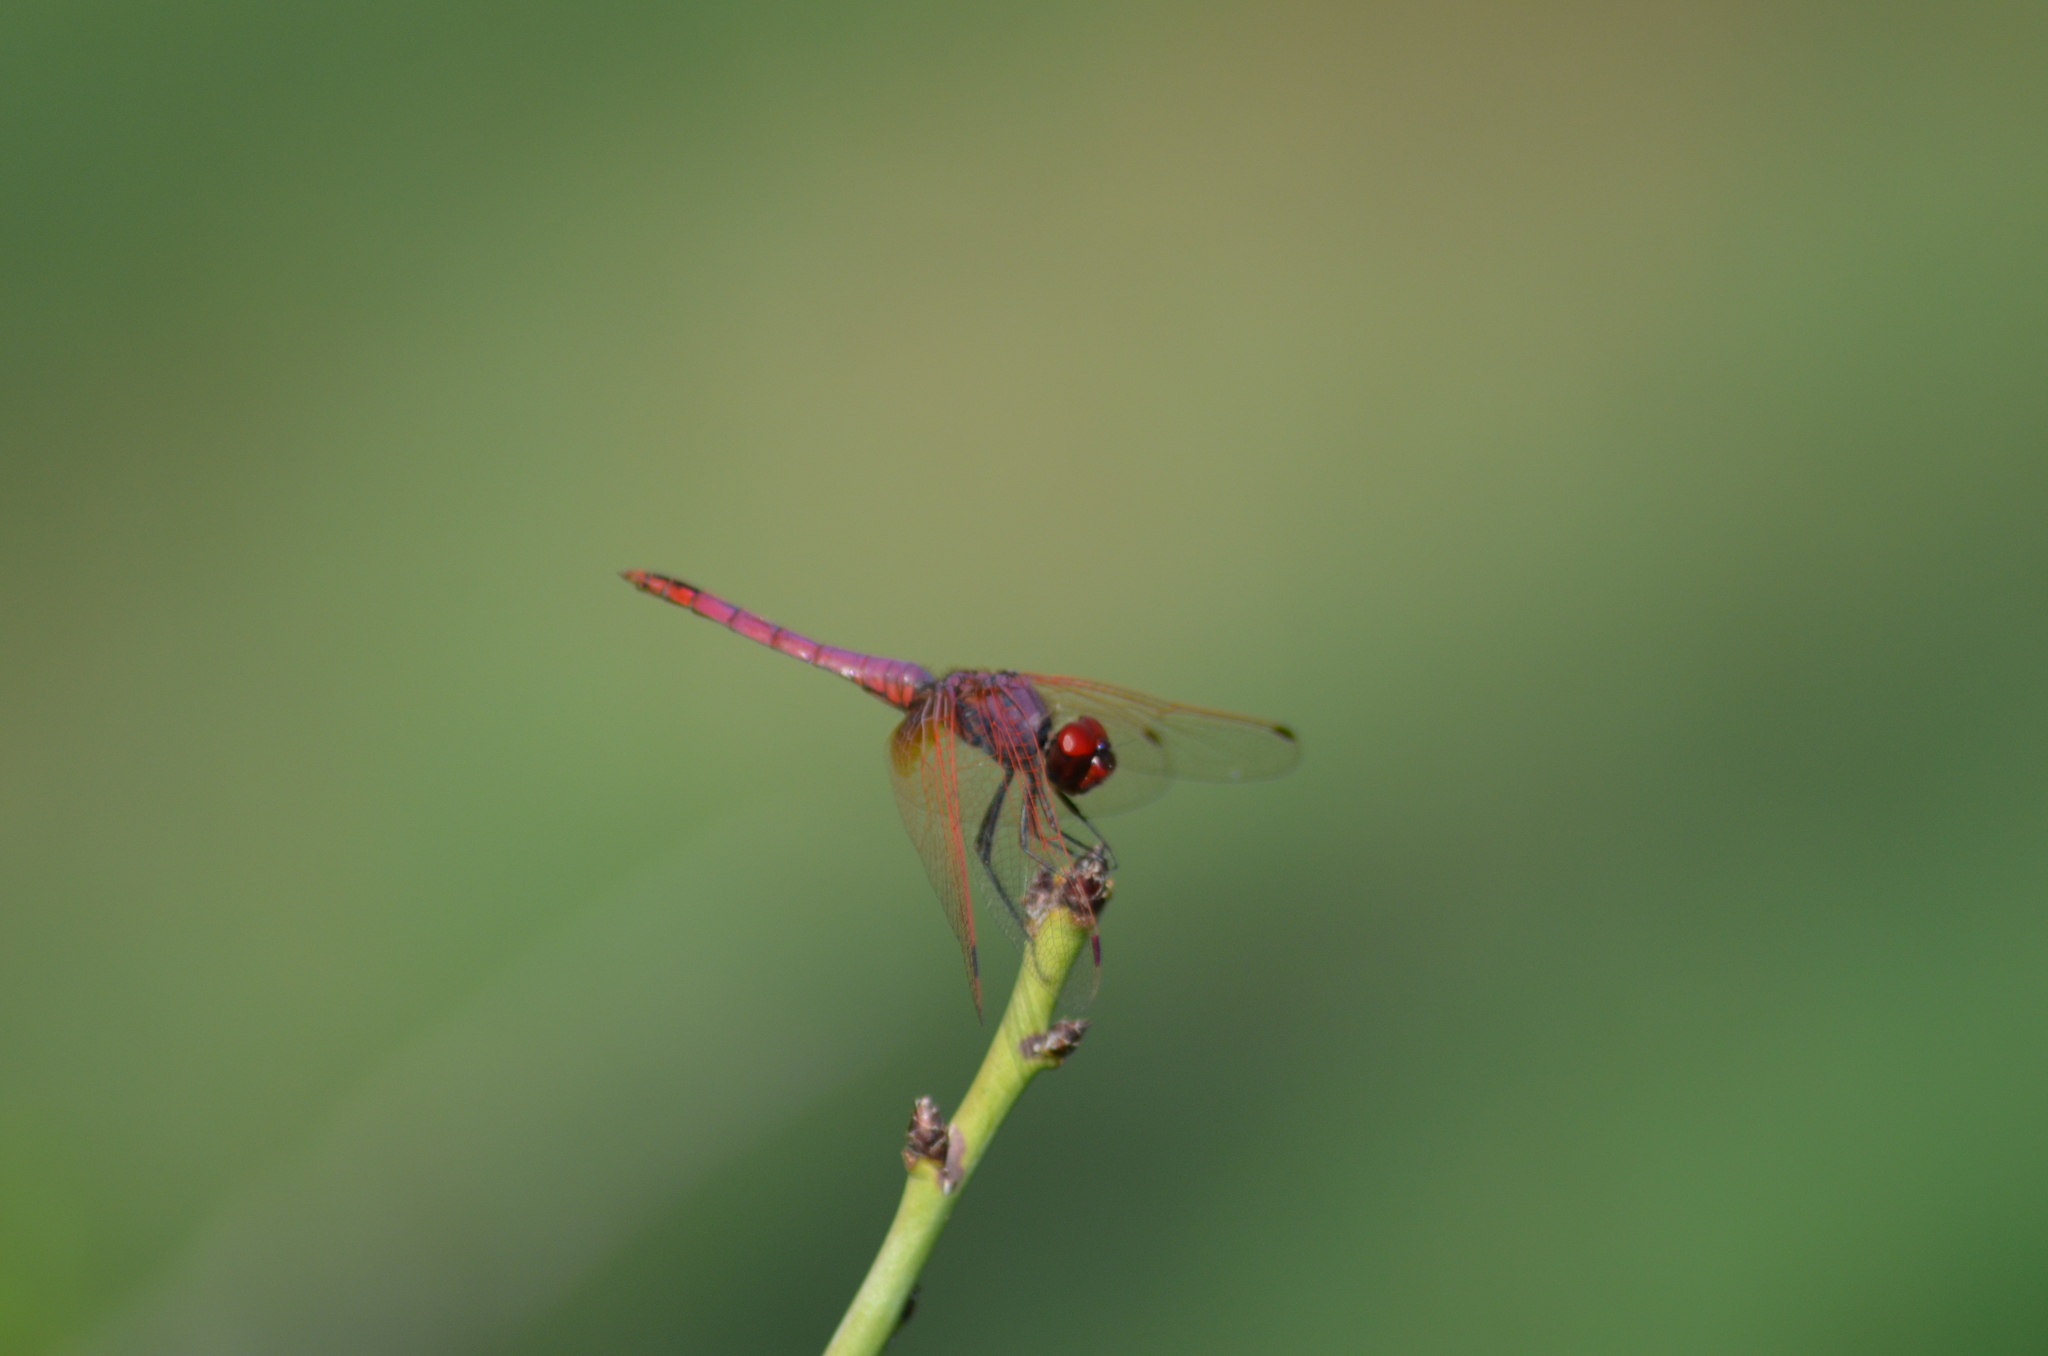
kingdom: Animalia
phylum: Arthropoda
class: Insecta
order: Odonata
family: Libellulidae
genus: Trithemis
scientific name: Trithemis annulata
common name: Violet dropwing
